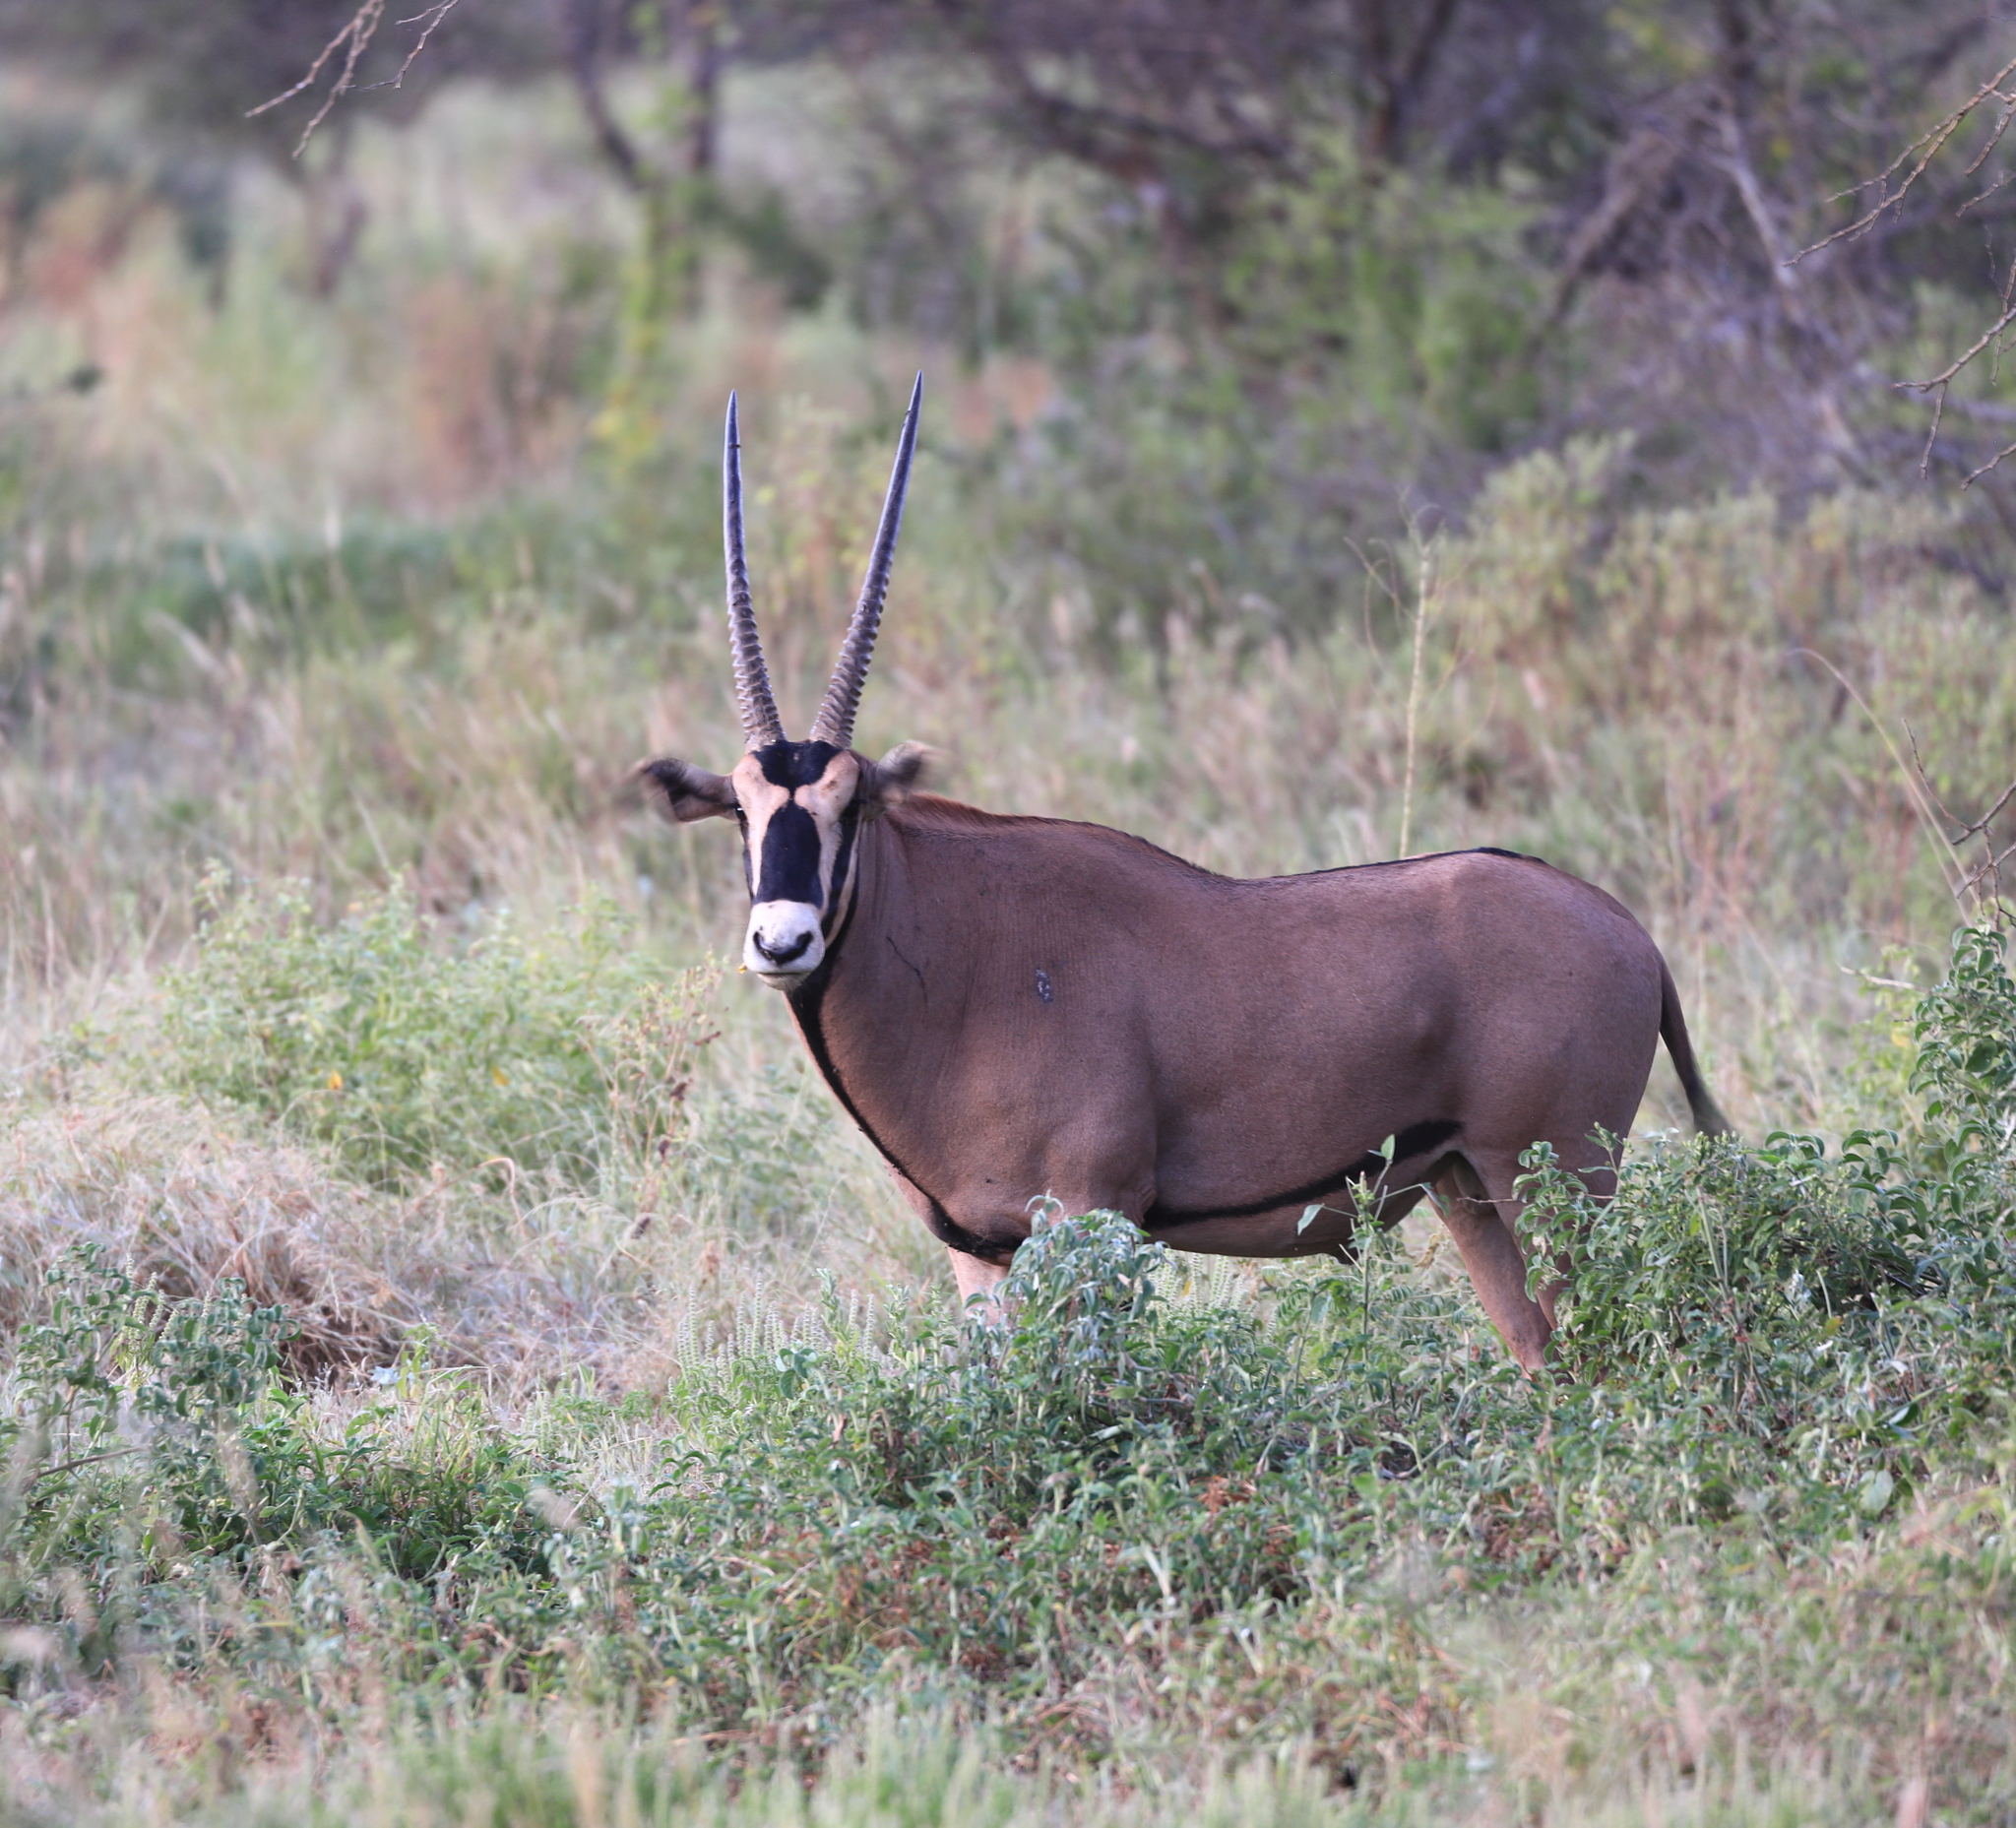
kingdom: Animalia
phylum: Chordata
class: Mammalia
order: Artiodactyla
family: Bovidae
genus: Oryx
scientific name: Oryx beisa
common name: Beisa
